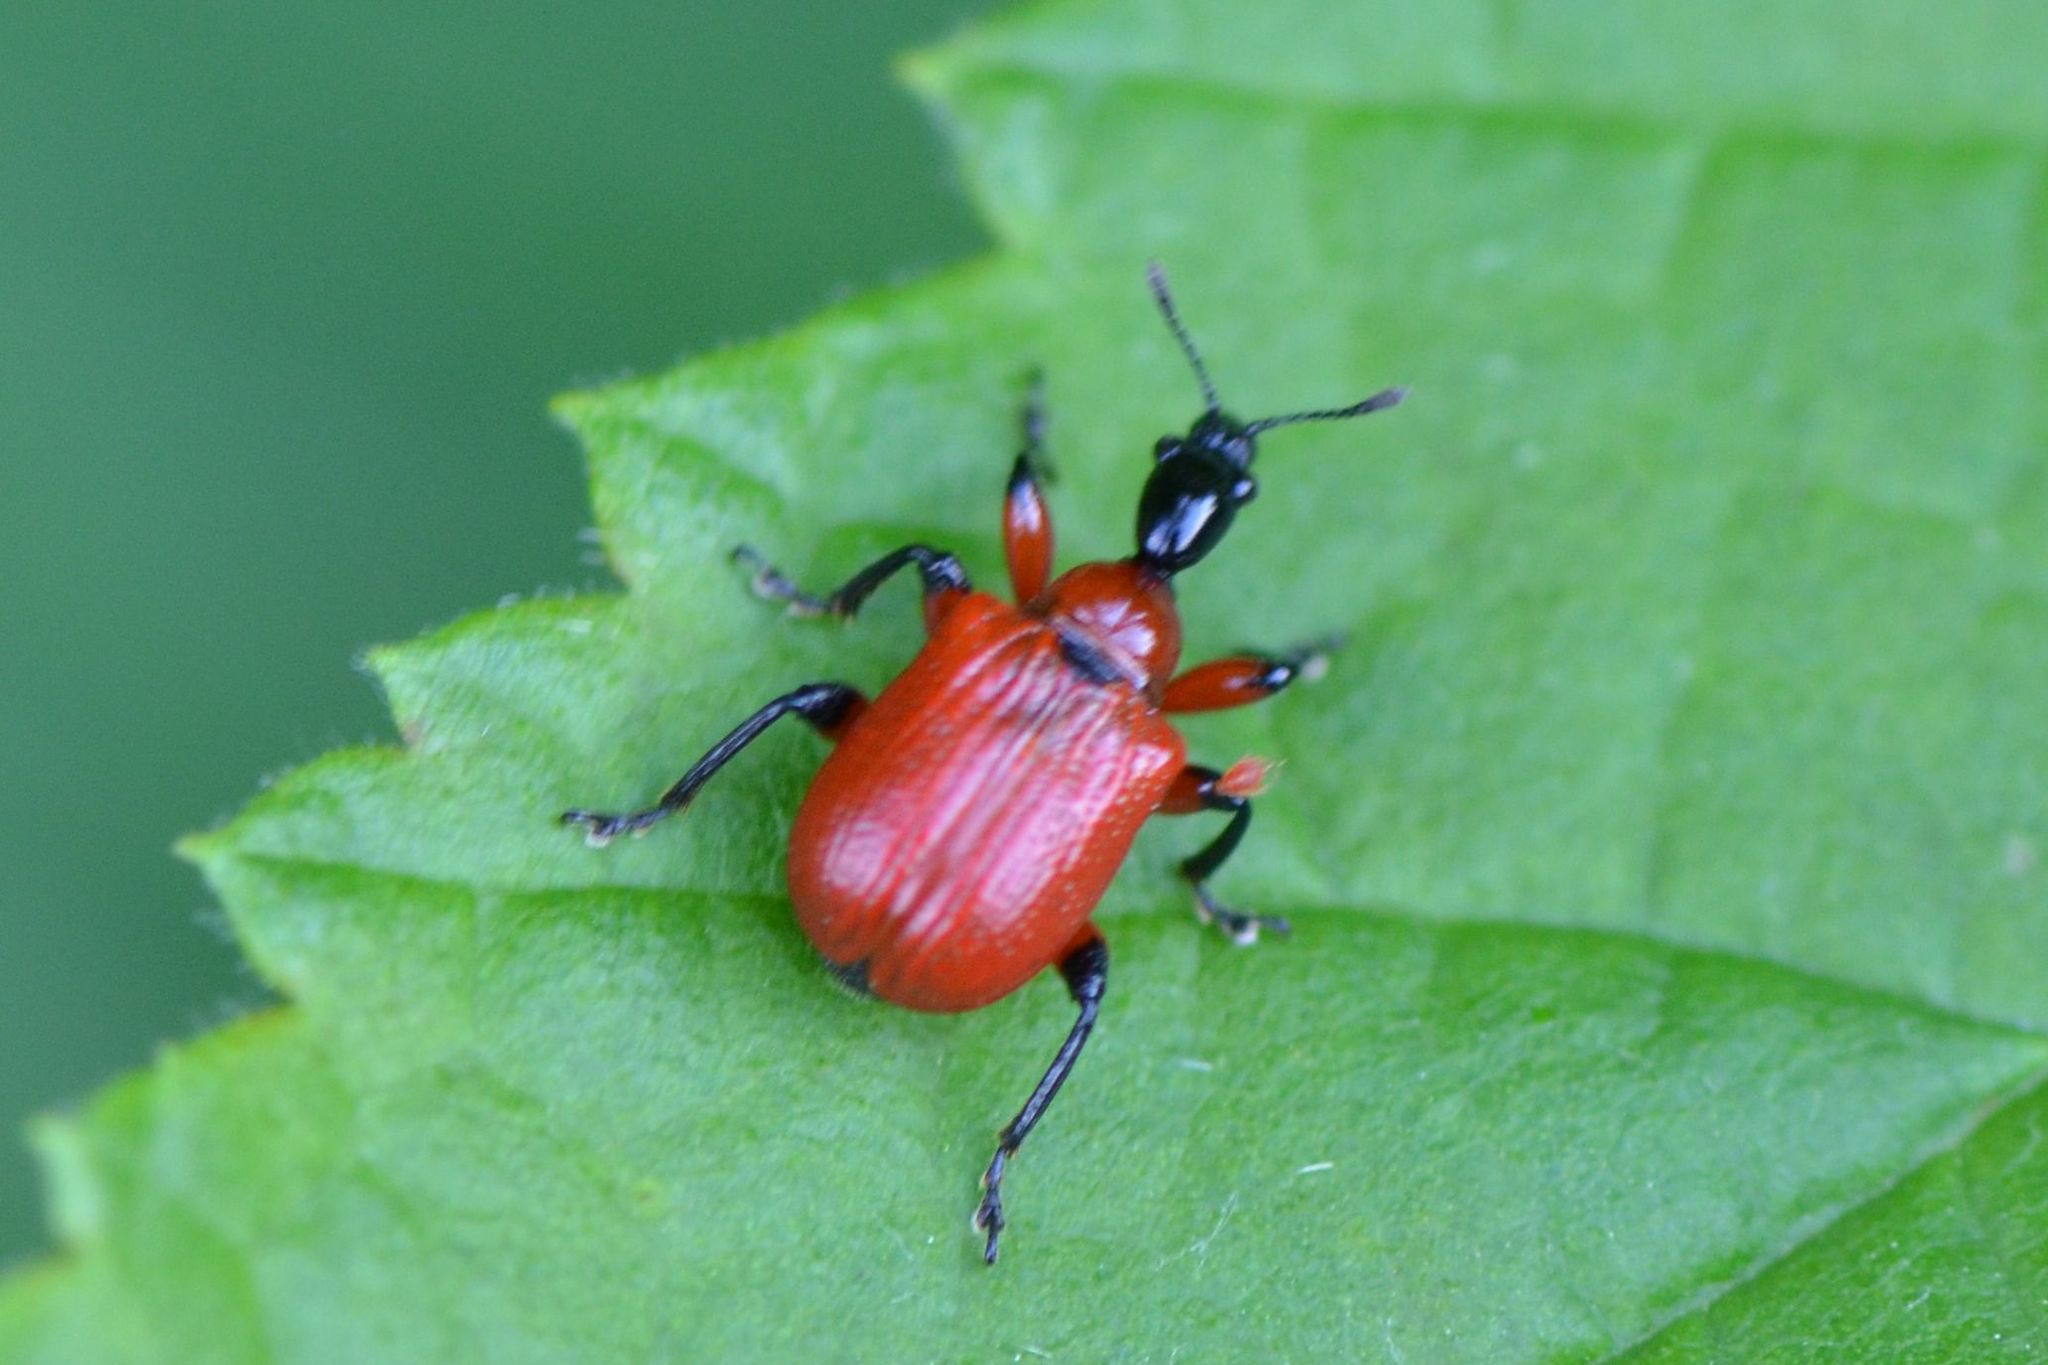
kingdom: Animalia
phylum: Arthropoda
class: Insecta
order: Coleoptera
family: Attelabidae
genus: Apoderus
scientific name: Apoderus coryli
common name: Hazel leaf roller
